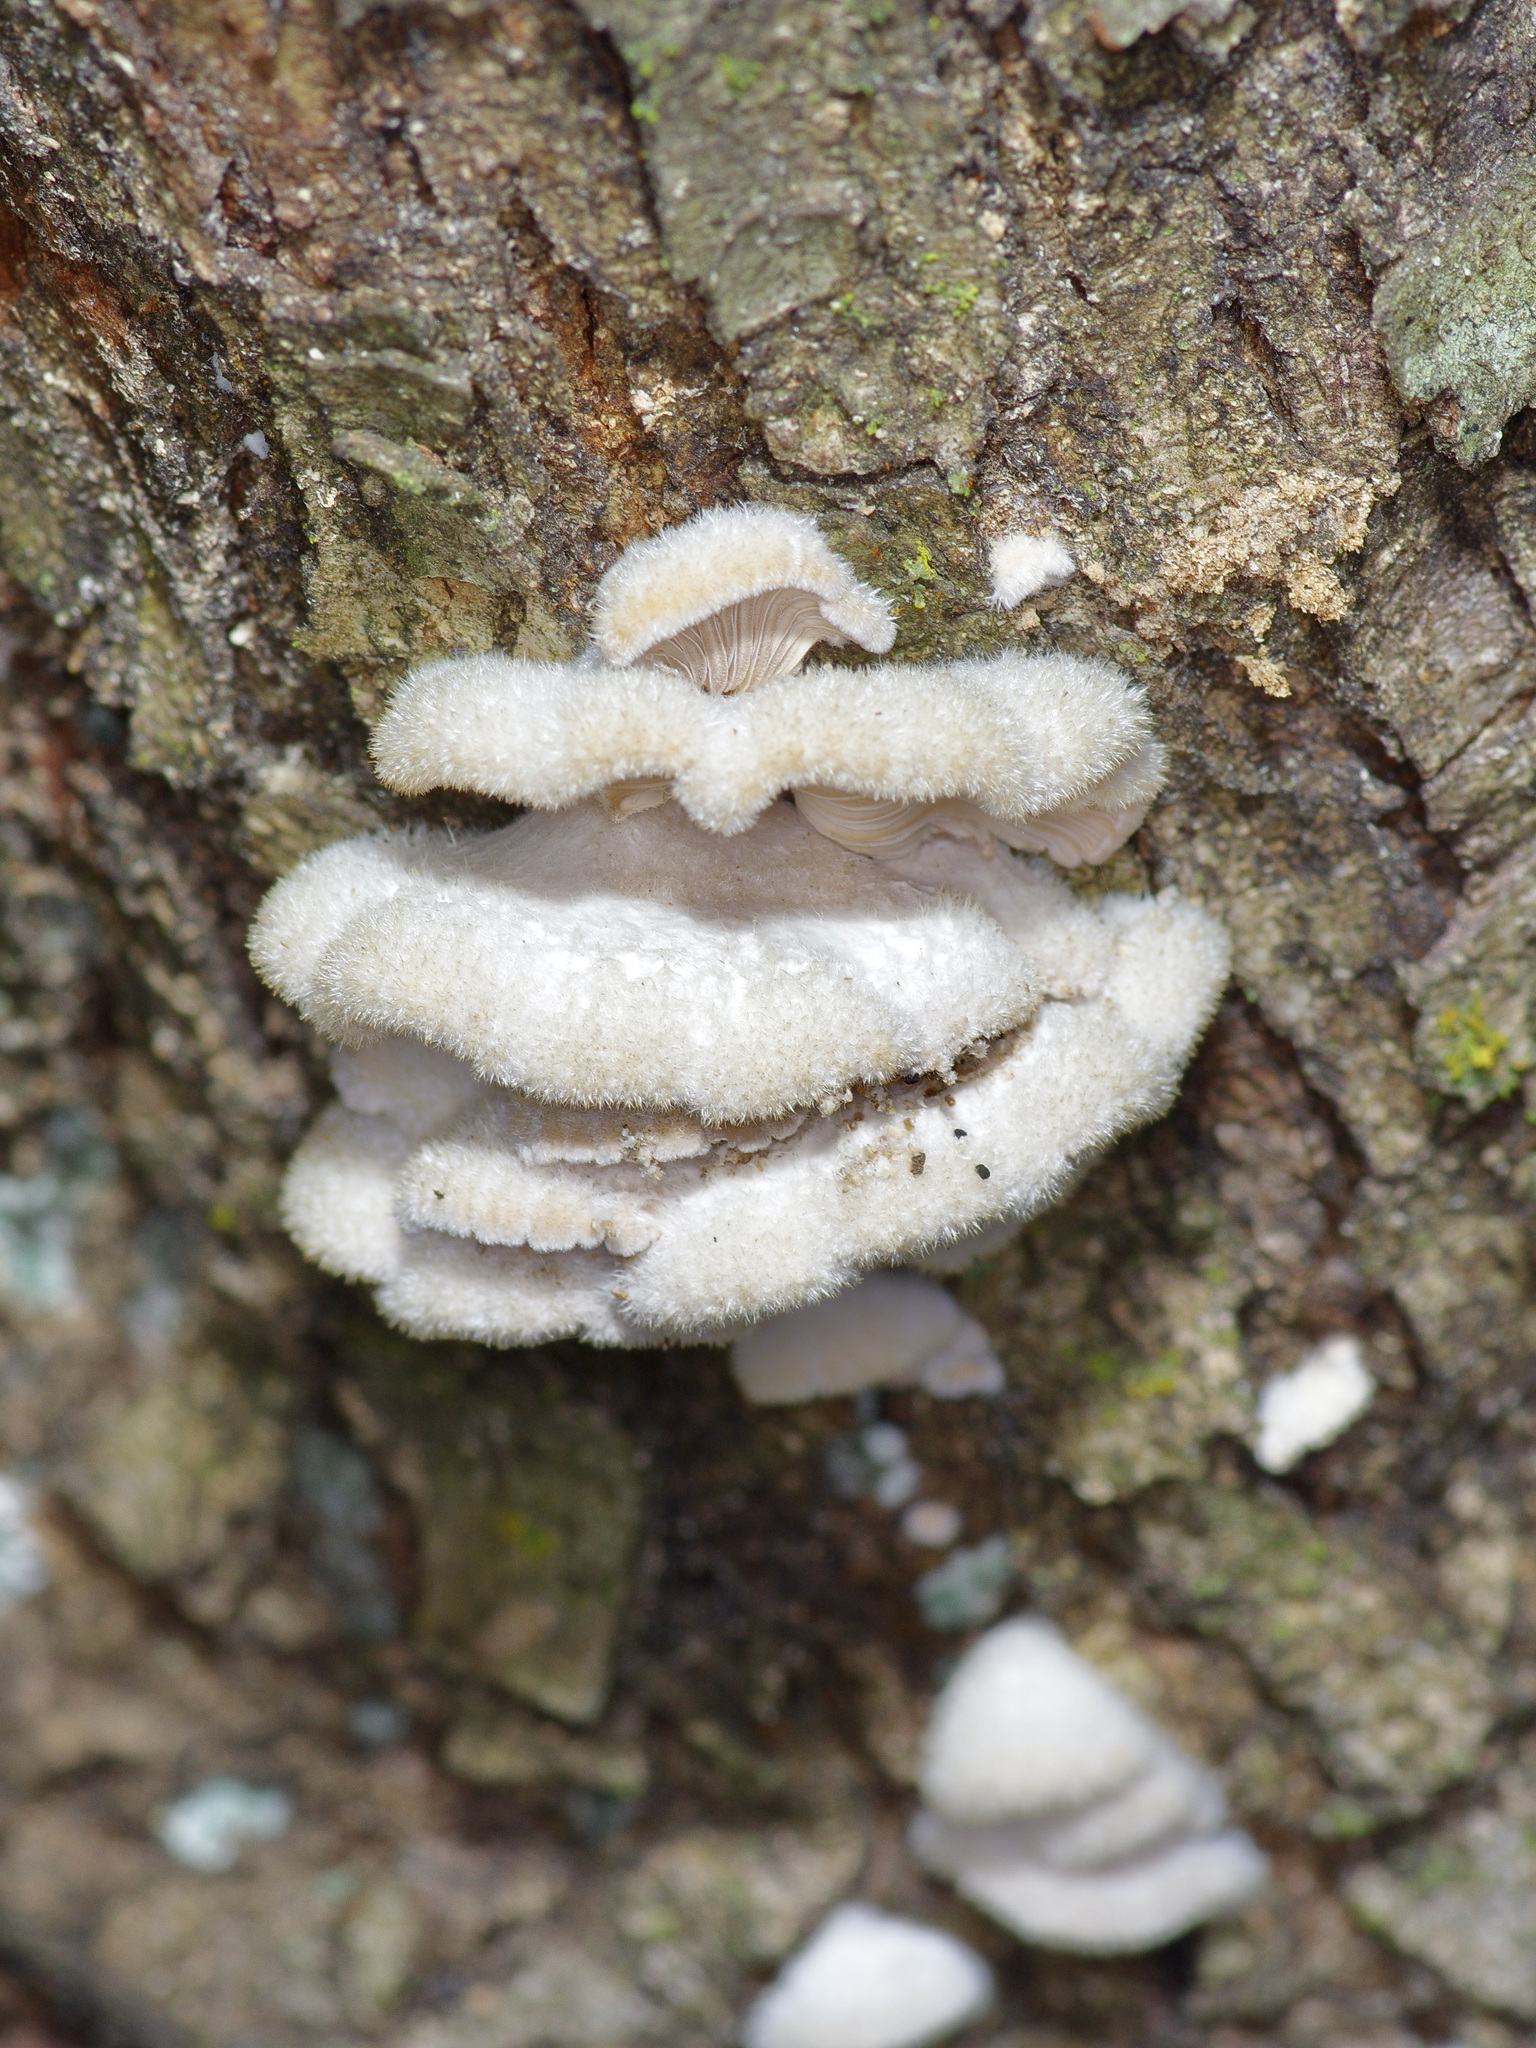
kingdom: Fungi
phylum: Basidiomycota
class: Agaricomycetes
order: Agaricales
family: Schizophyllaceae
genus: Schizophyllum
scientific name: Schizophyllum commune
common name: Common porecrust
